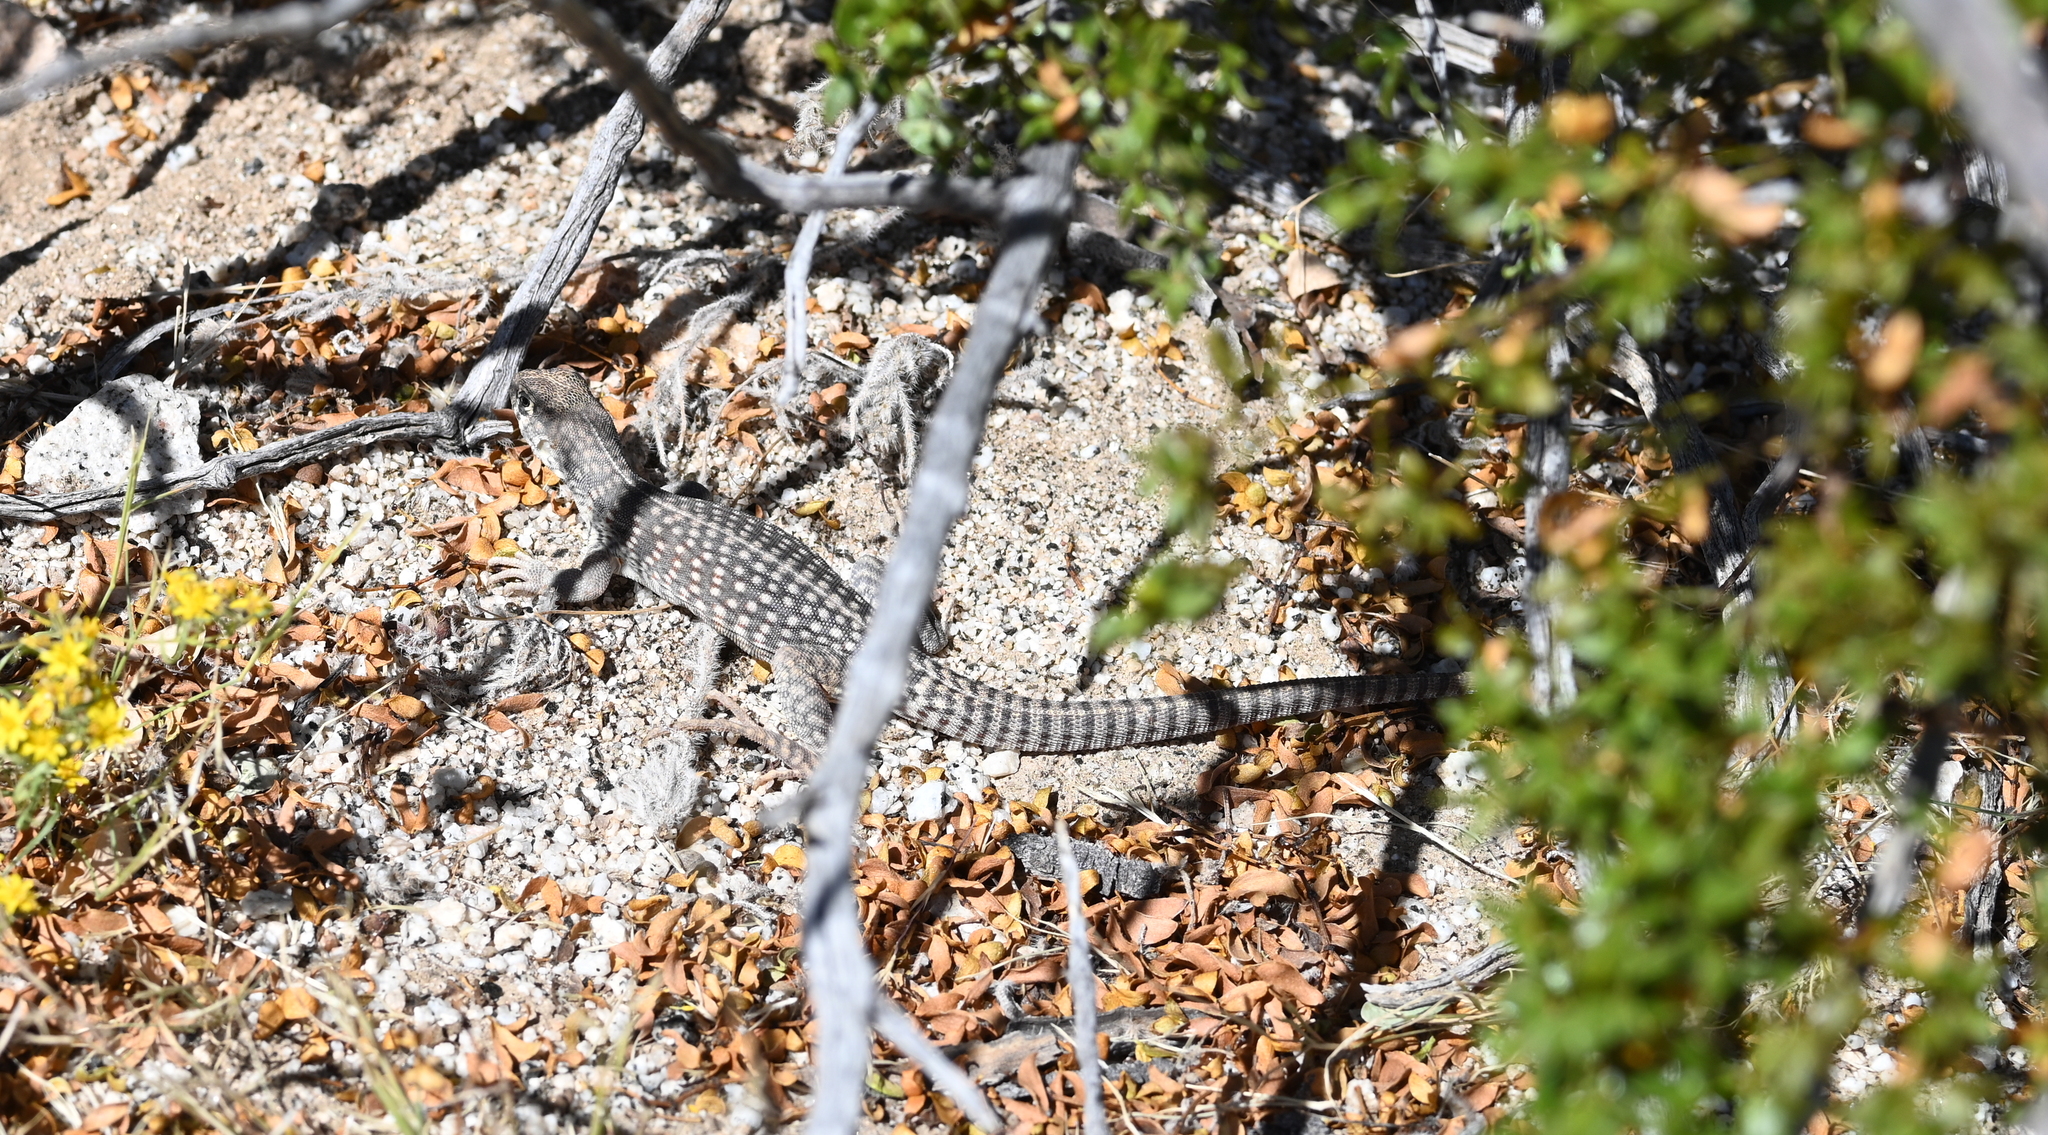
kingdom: Animalia
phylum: Chordata
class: Squamata
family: Iguanidae
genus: Dipsosaurus
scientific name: Dipsosaurus dorsalis
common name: Desert iguana
